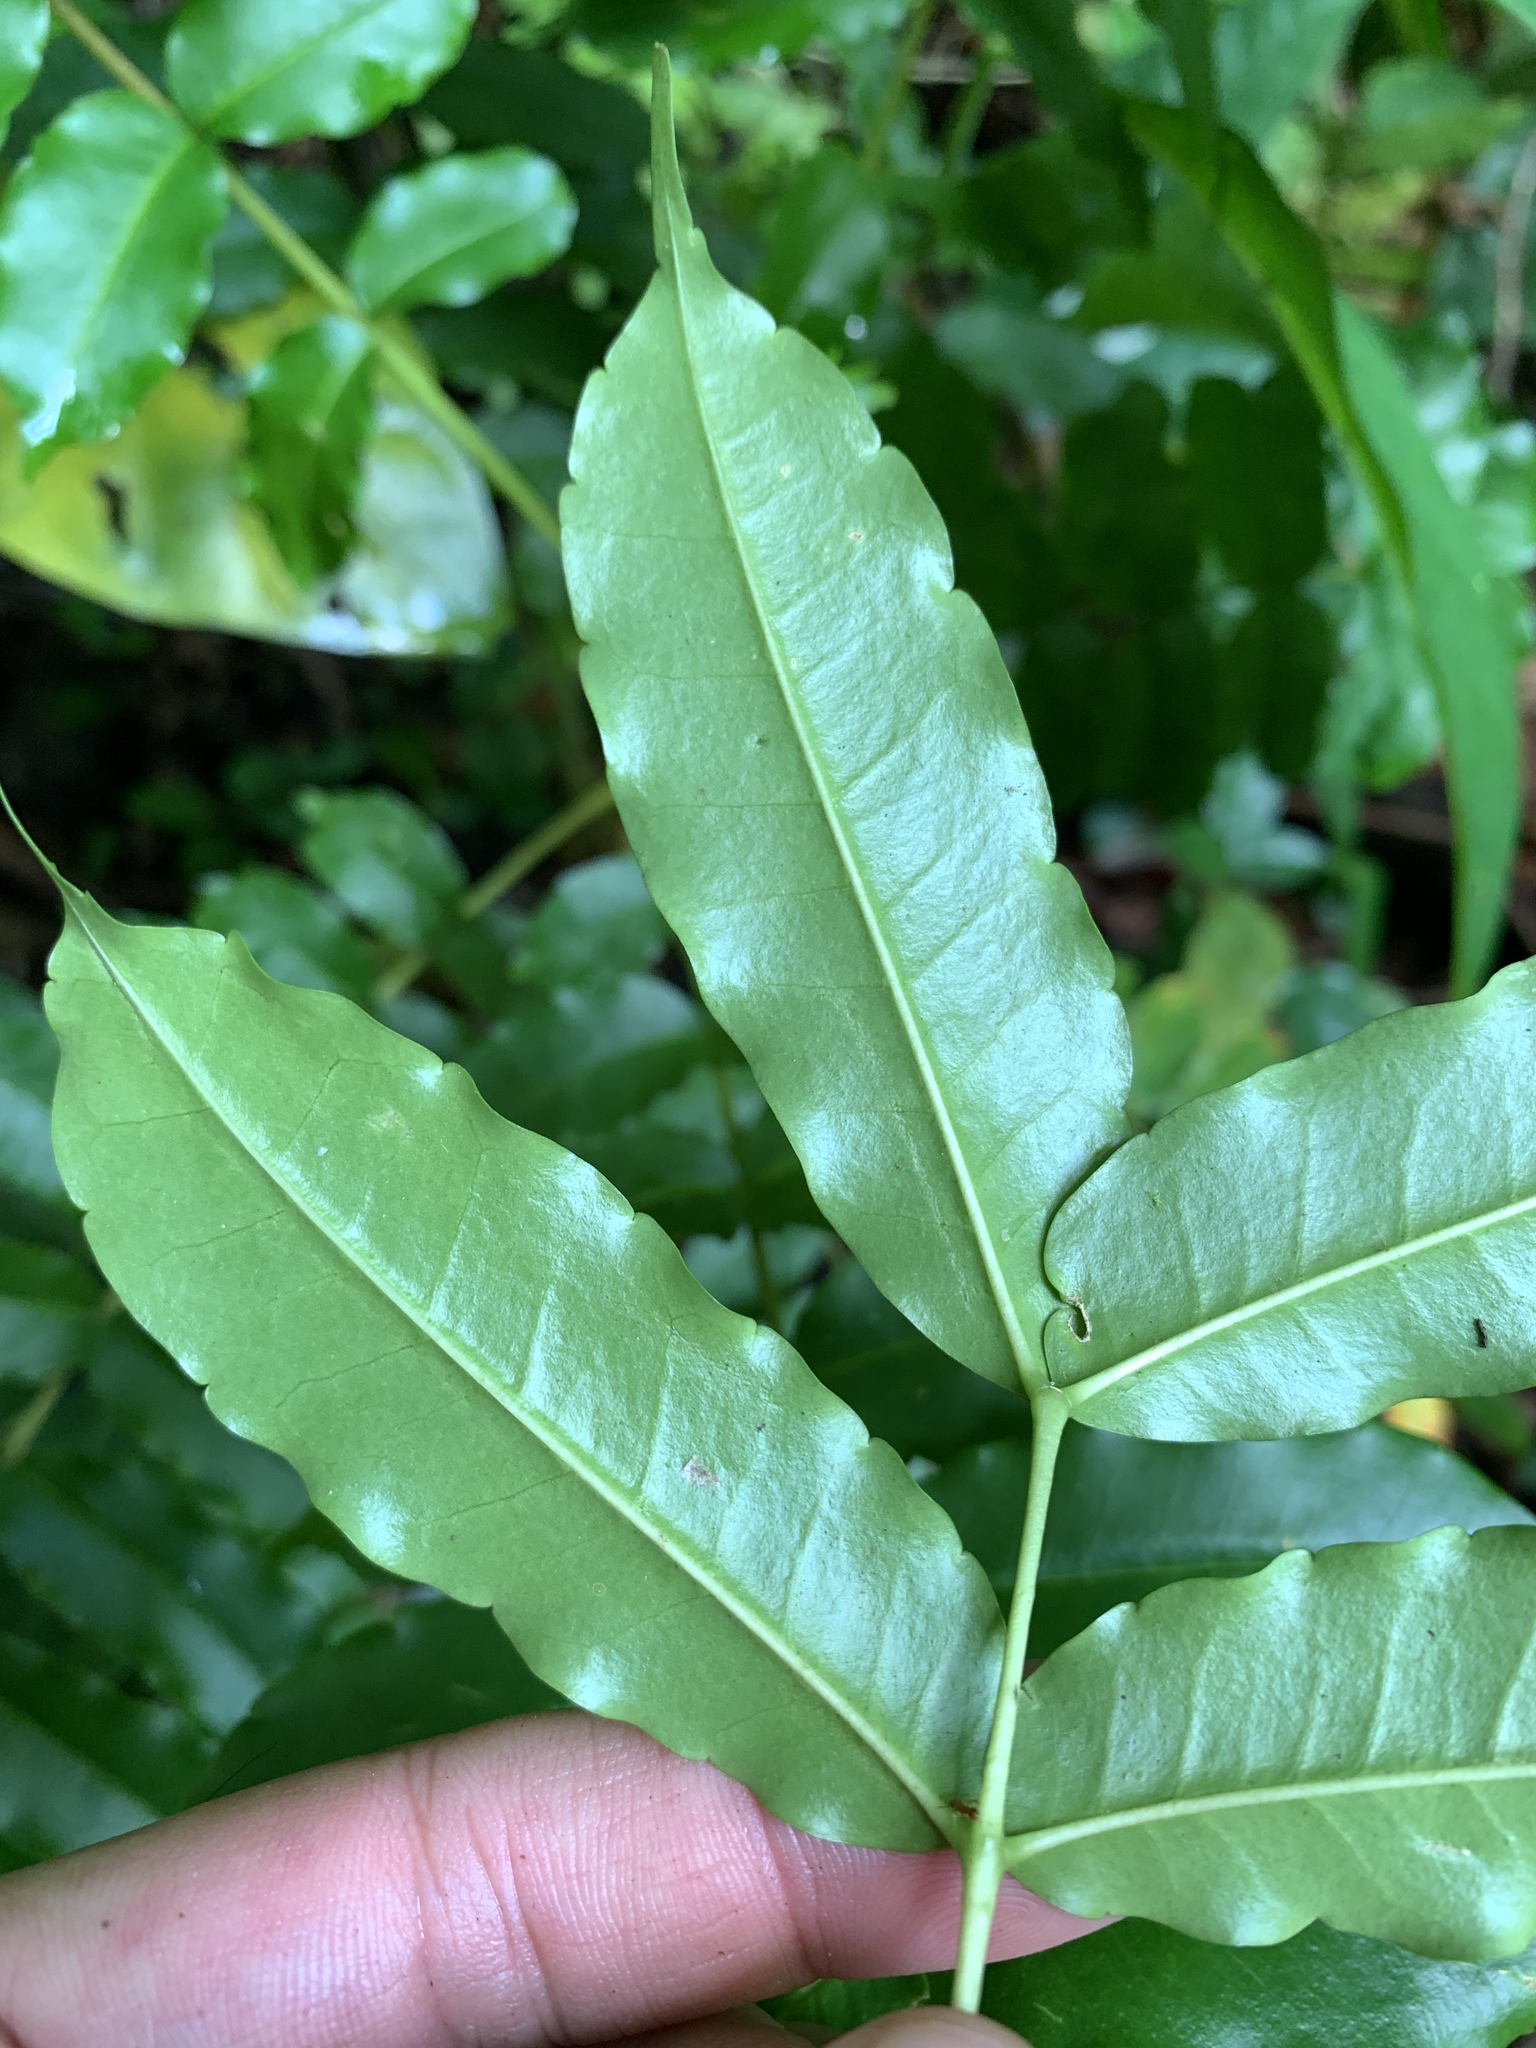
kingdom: Plantae
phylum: Tracheophyta
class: Magnoliopsida
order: Sapindales
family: Rutaceae
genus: Zanthoxylum
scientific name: Zanthoxylum integrifoliolum
